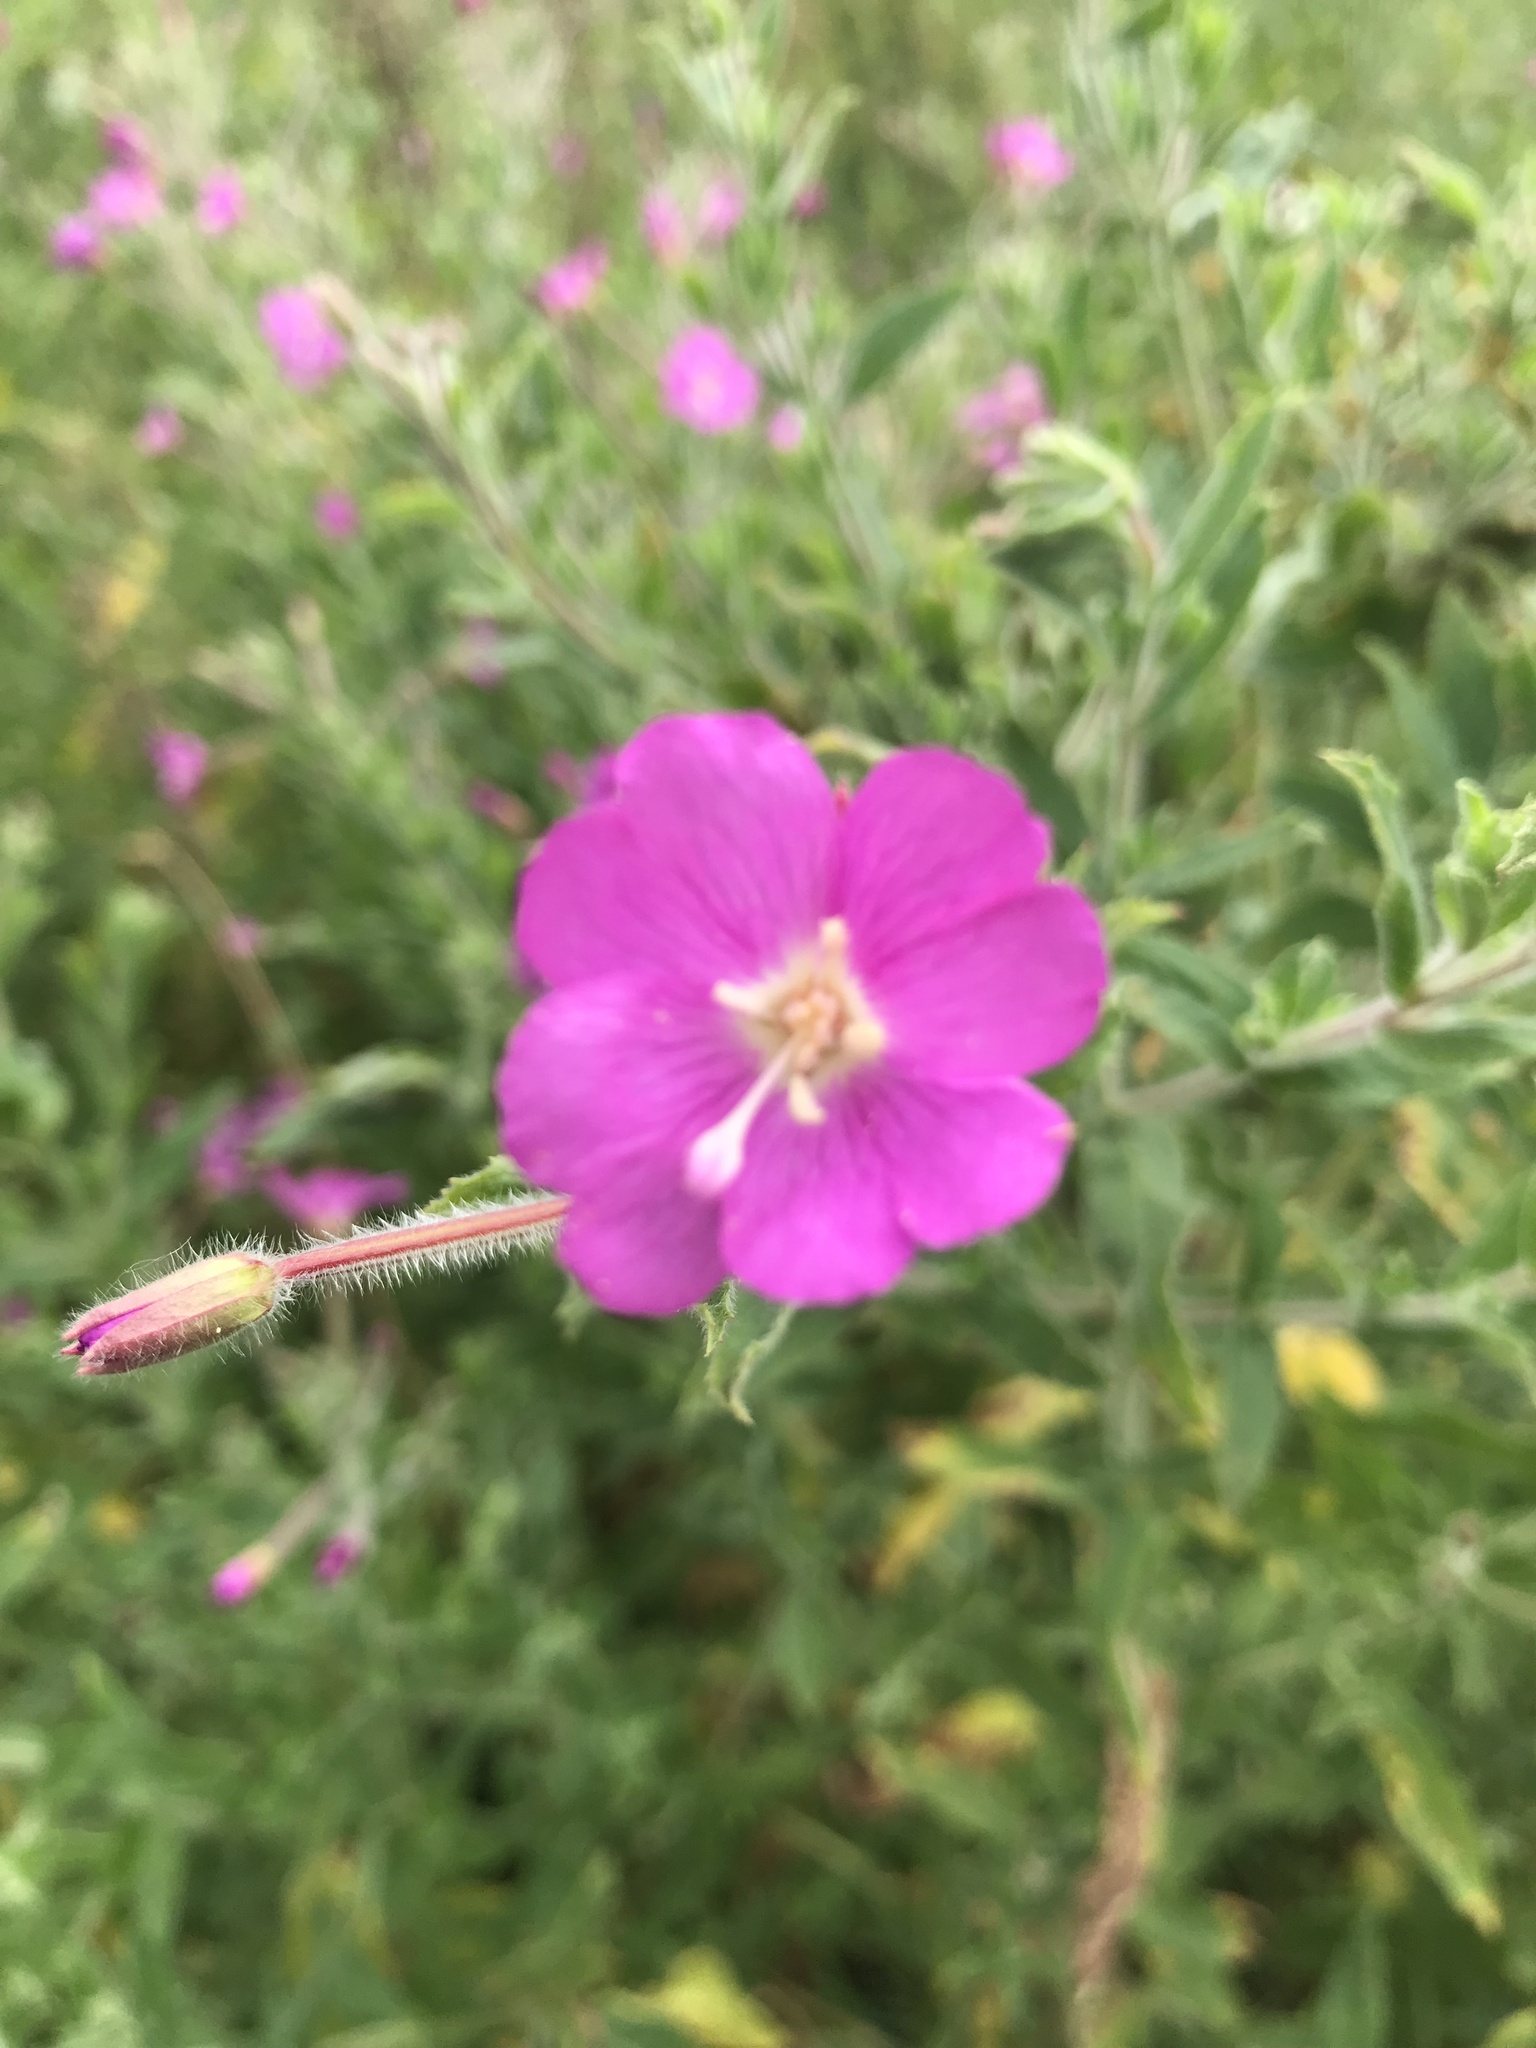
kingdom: Plantae
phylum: Tracheophyta
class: Magnoliopsida
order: Myrtales
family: Onagraceae
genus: Epilobium
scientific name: Epilobium hirsutum
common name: Great willowherb
